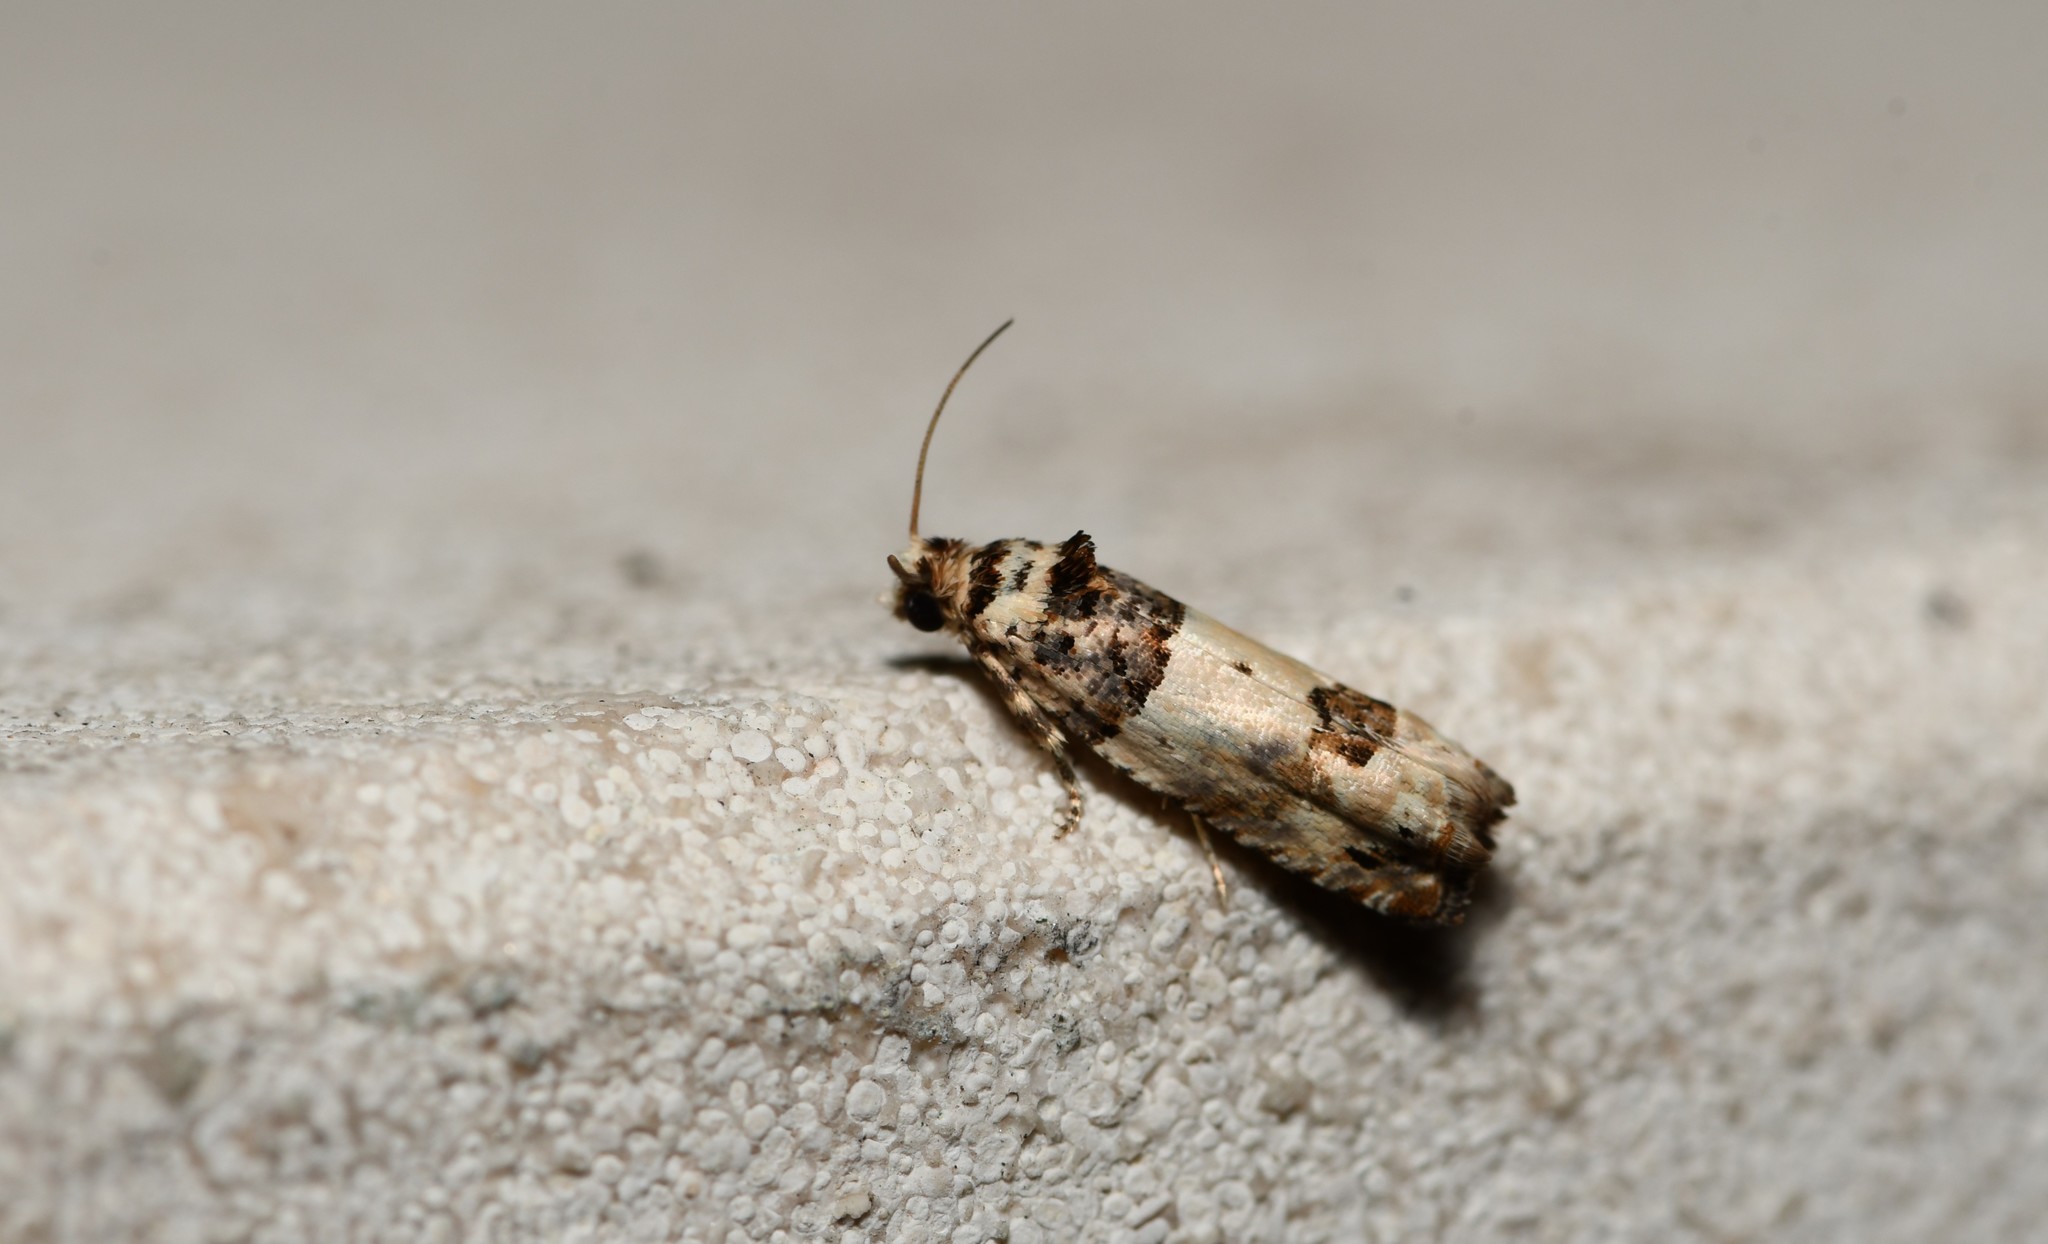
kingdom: Animalia
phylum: Arthropoda
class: Insecta
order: Lepidoptera
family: Tortricidae
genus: Epinotia
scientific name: Epinotia thapsiana
